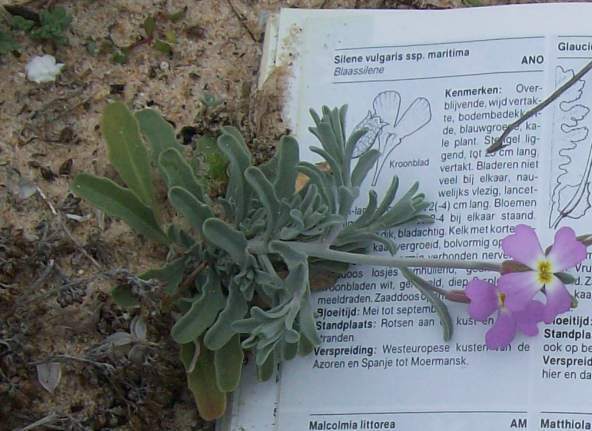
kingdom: Plantae
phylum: Tracheophyta
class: Magnoliopsida
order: Brassicales
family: Brassicaceae
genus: Marcuskochia
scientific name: Marcuskochia littorea
